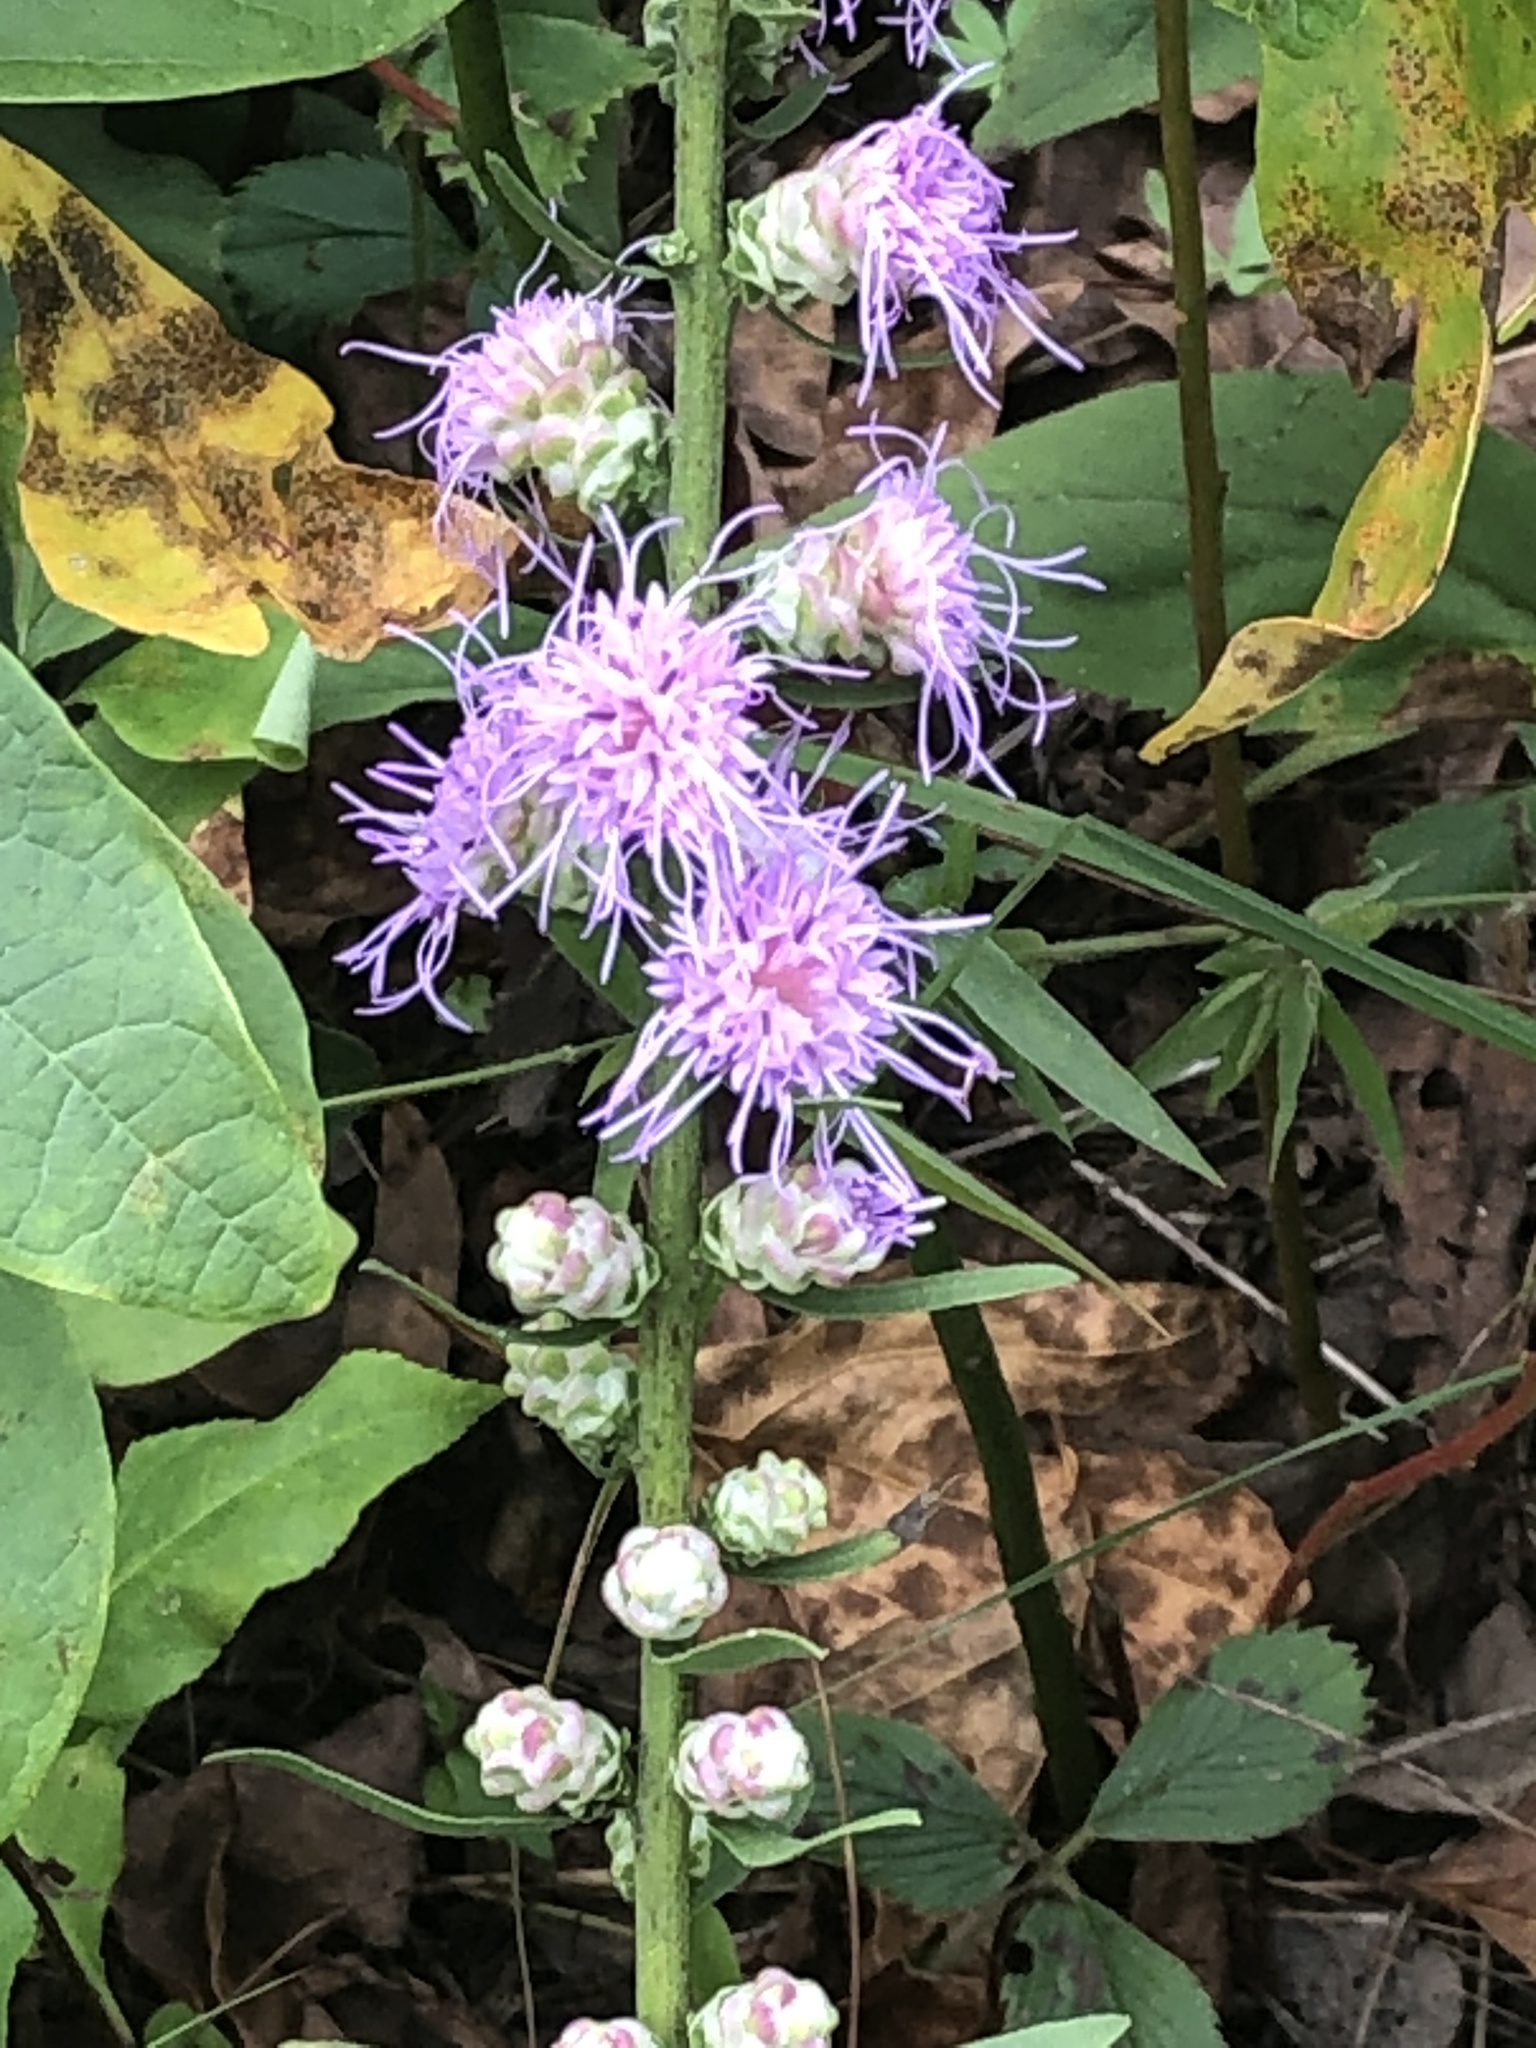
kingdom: Plantae
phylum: Tracheophyta
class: Magnoliopsida
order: Asterales
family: Asteraceae
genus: Liatris
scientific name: Liatris aspera
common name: Lacerate blazing-star
